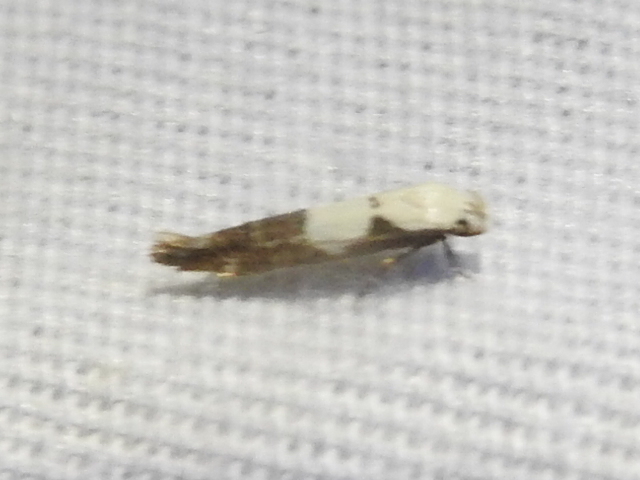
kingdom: Animalia
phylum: Arthropoda
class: Insecta
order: Lepidoptera
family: Momphidae
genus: Mompha
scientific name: Mompha circumscriptella
